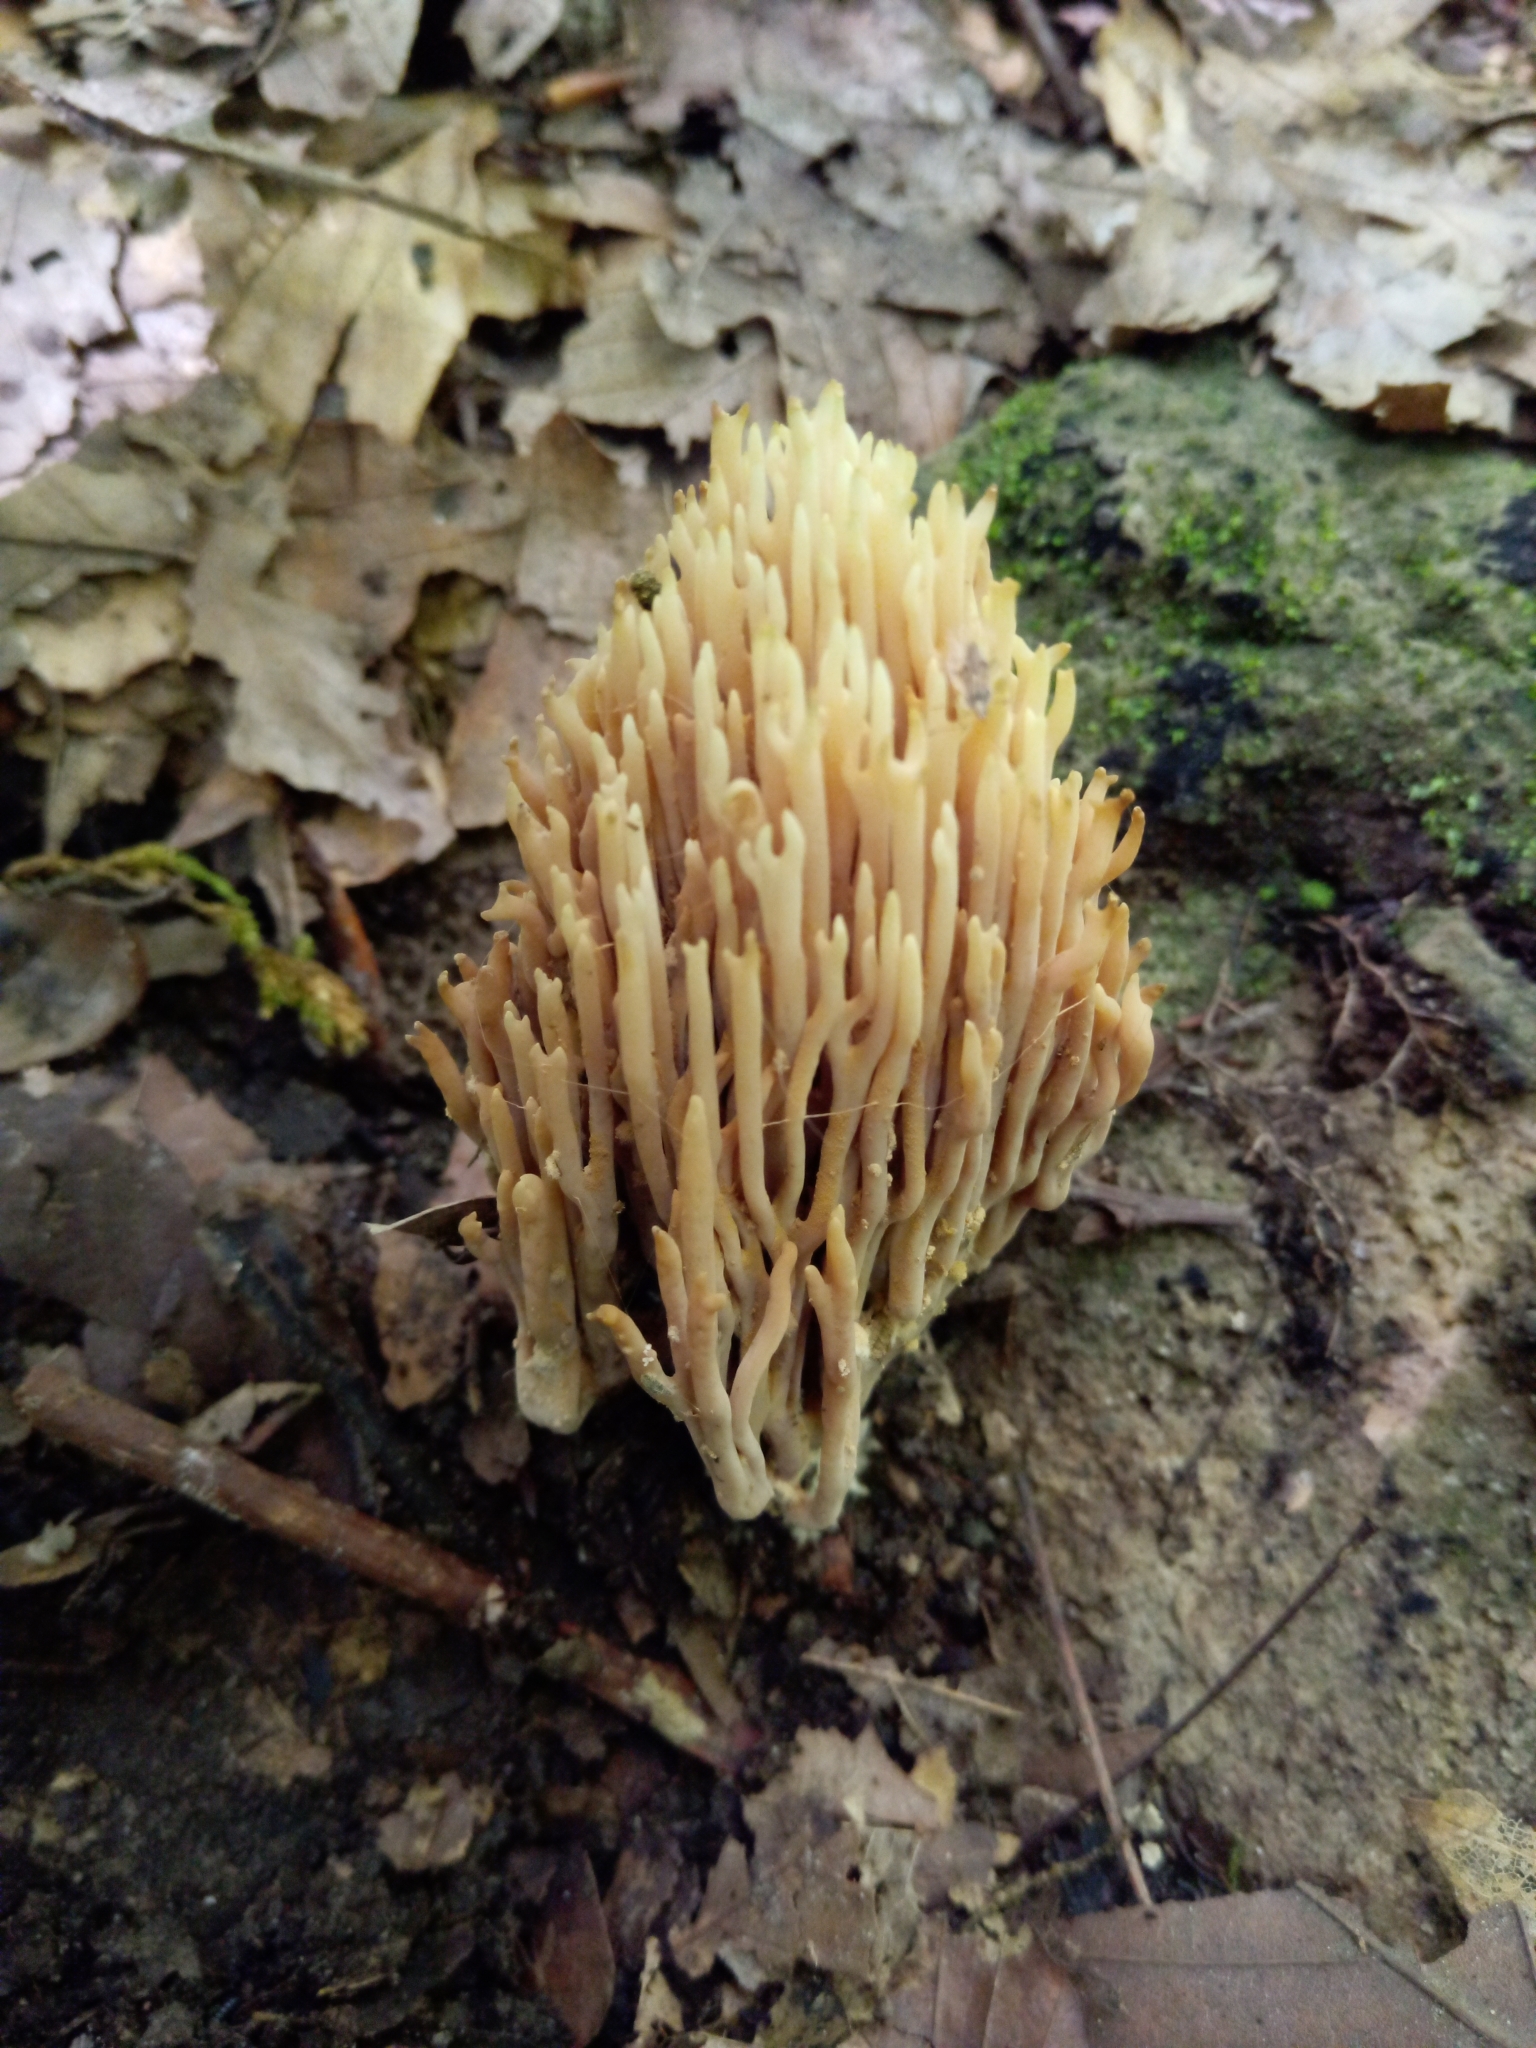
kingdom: Fungi
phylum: Basidiomycota
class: Agaricomycetes
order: Gomphales
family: Gomphaceae
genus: Ramaria
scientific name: Ramaria stricta
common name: Upright coral
